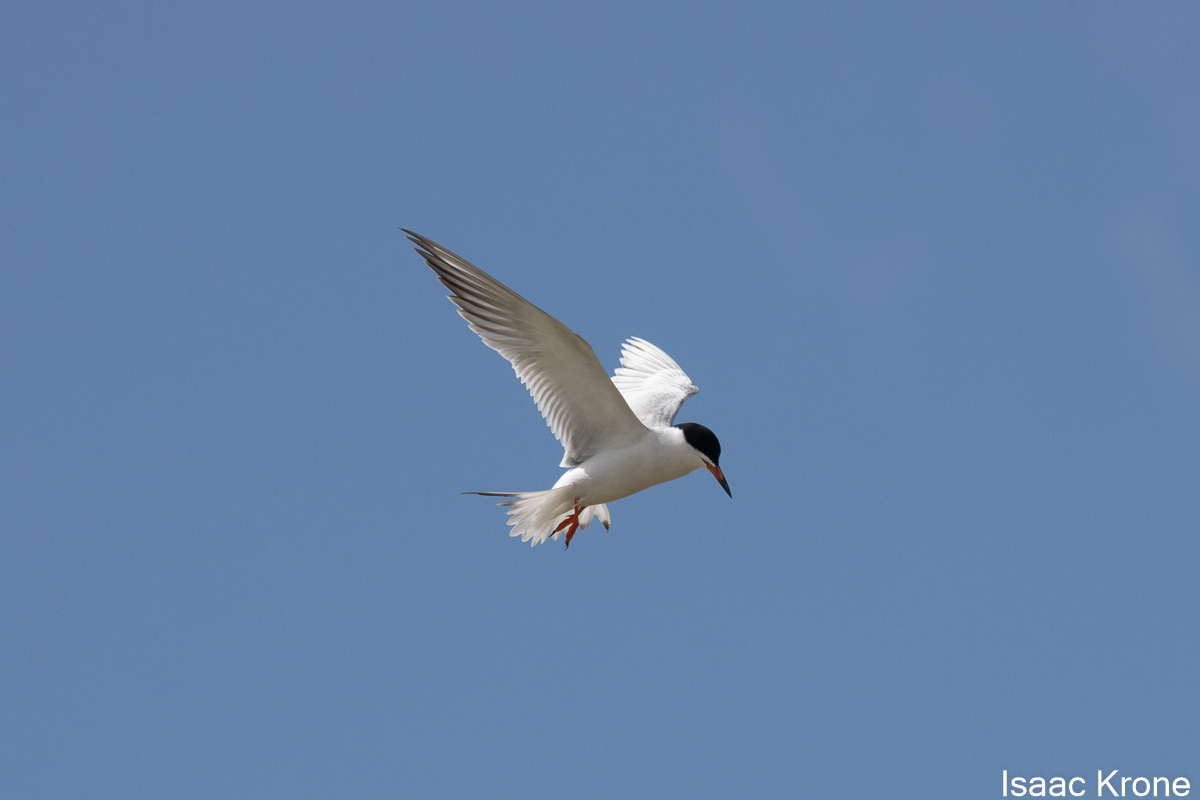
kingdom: Animalia
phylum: Chordata
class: Aves
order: Charadriiformes
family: Laridae
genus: Sterna
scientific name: Sterna forsteri
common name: Forster's tern
